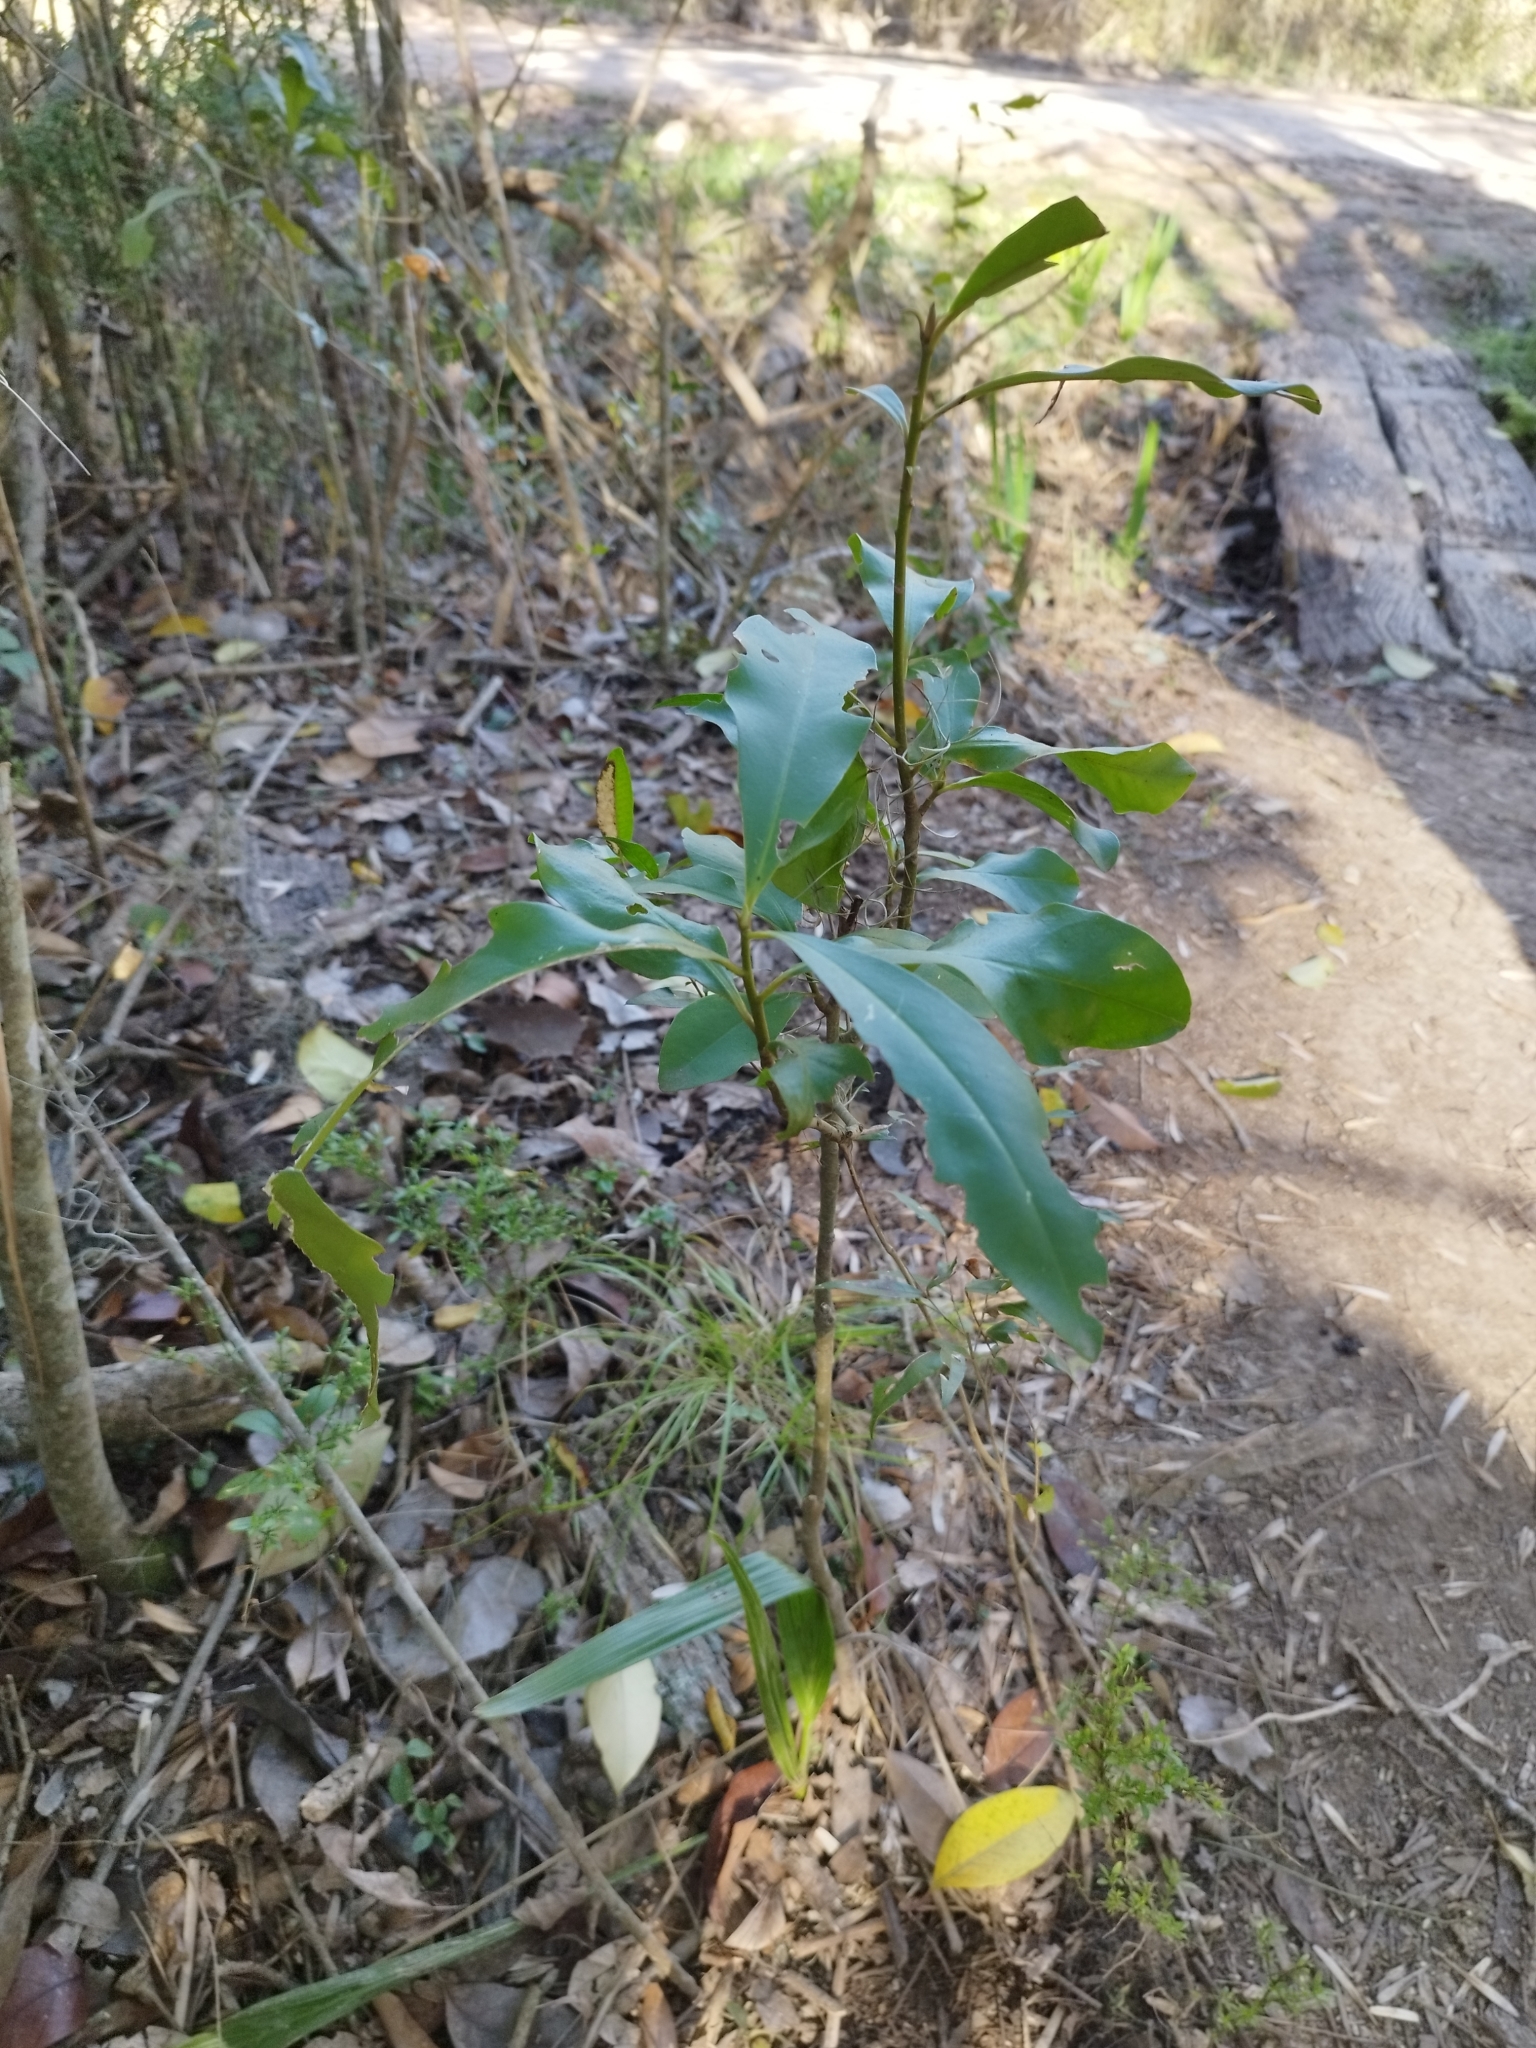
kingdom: Plantae
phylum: Tracheophyta
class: Magnoliopsida
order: Ericales
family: Primulaceae
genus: Myrsine
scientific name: Myrsine laetevirens
